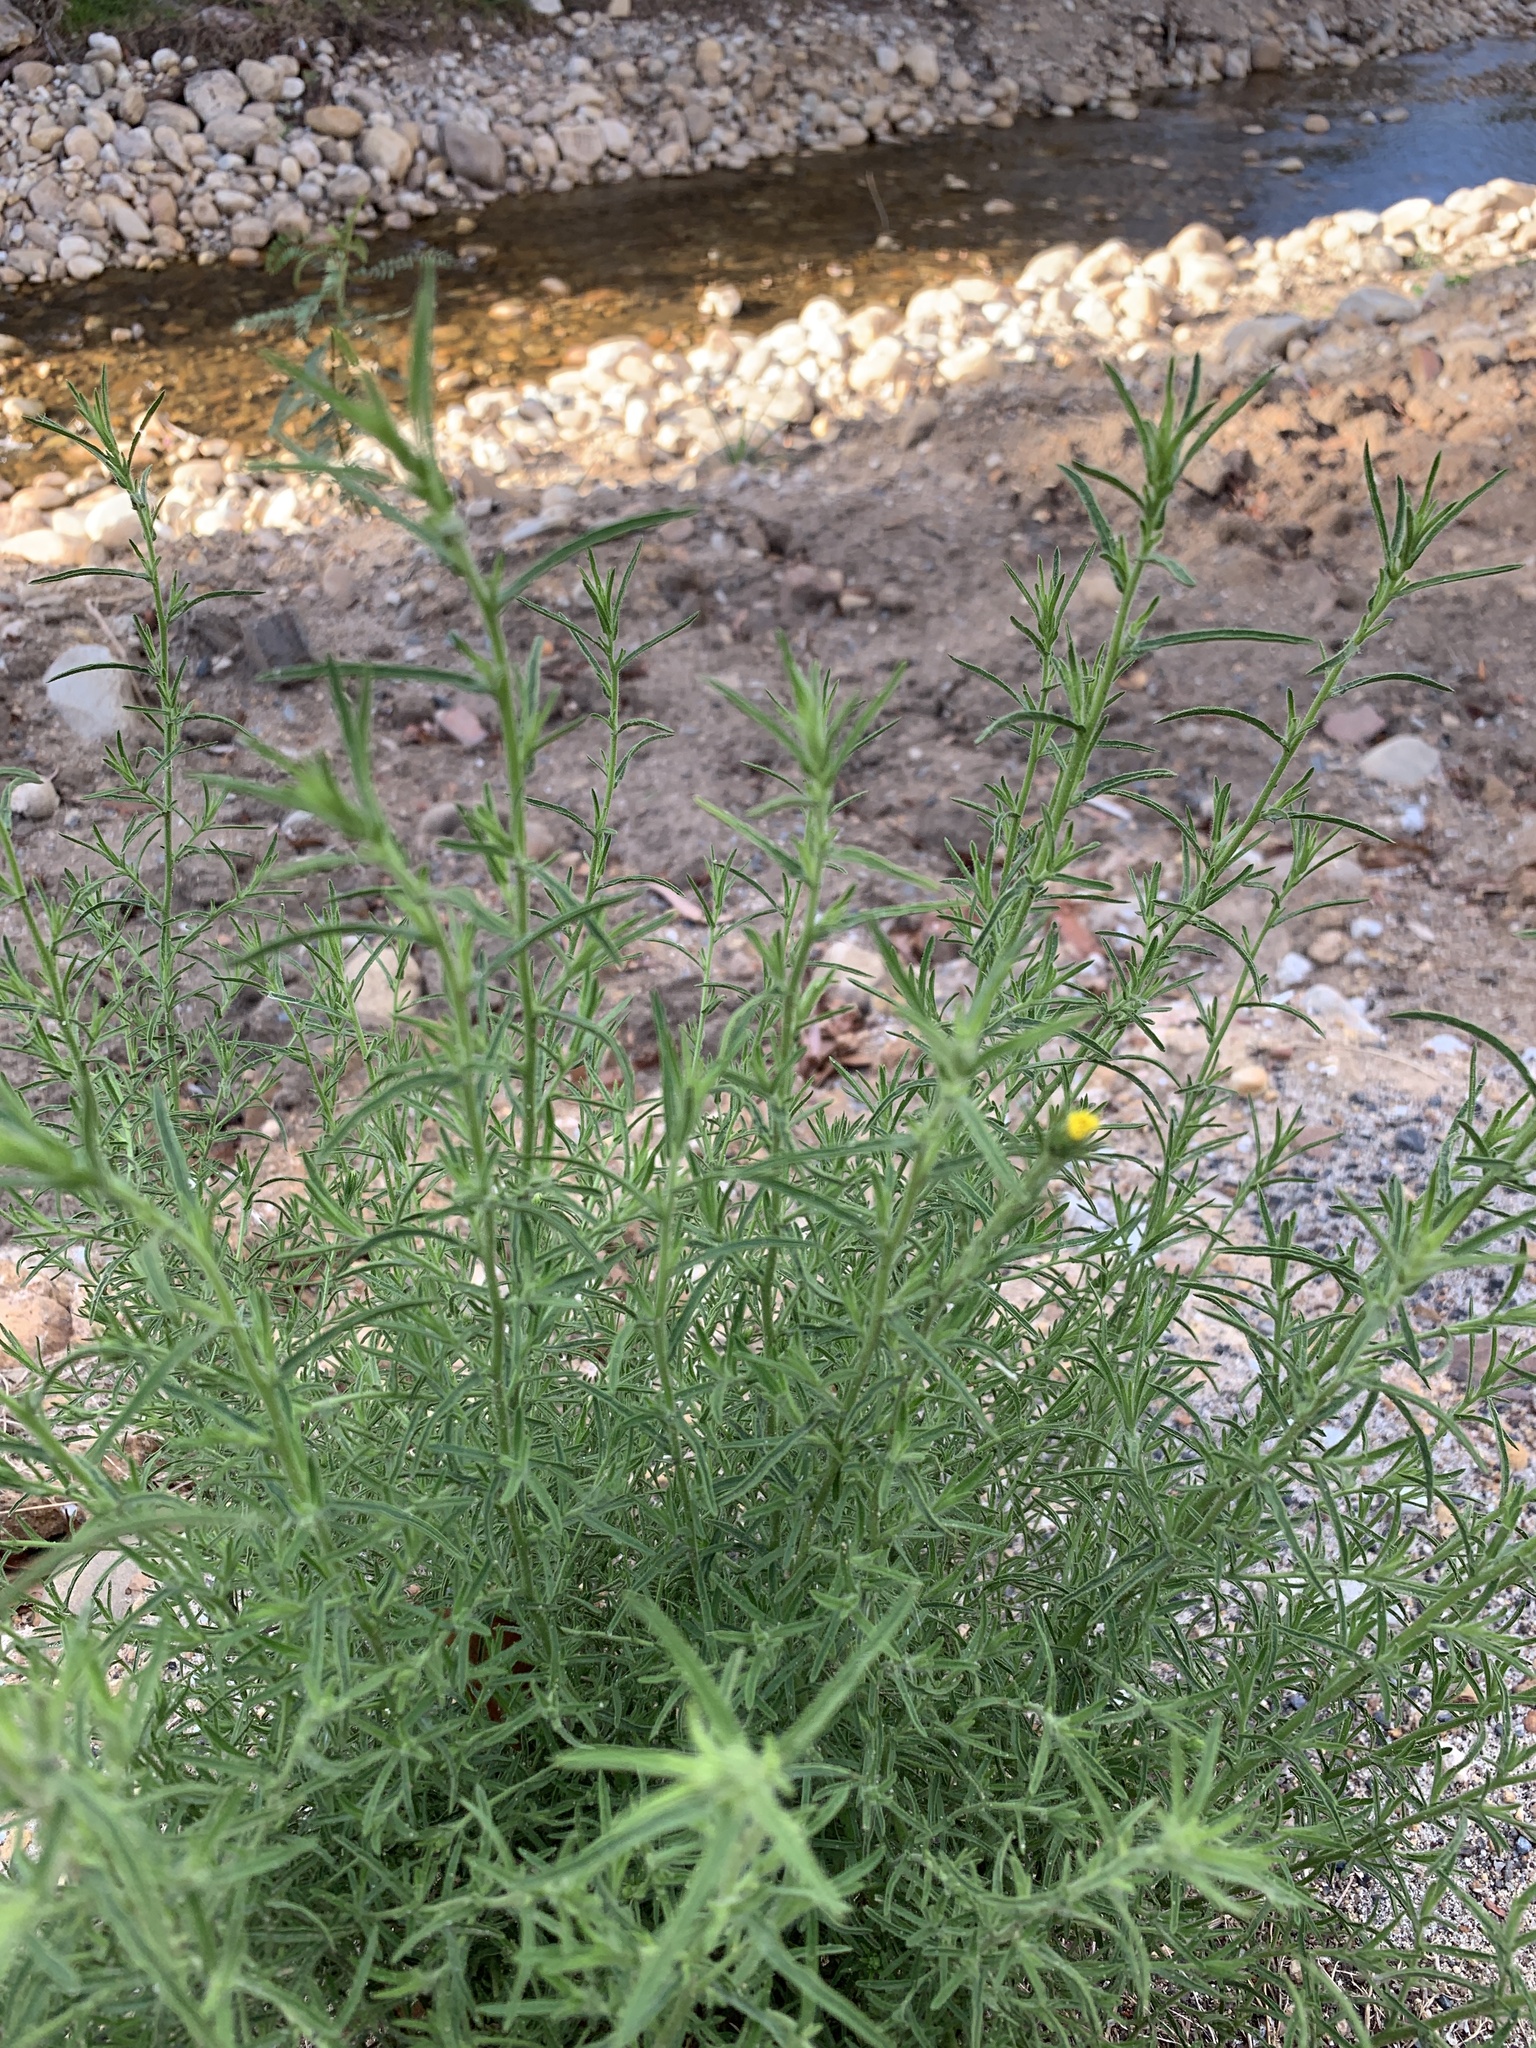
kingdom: Plantae
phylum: Tracheophyta
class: Magnoliopsida
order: Asterales
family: Asteraceae
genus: Dittrichia
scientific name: Dittrichia graveolens
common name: Stinking fleabane
